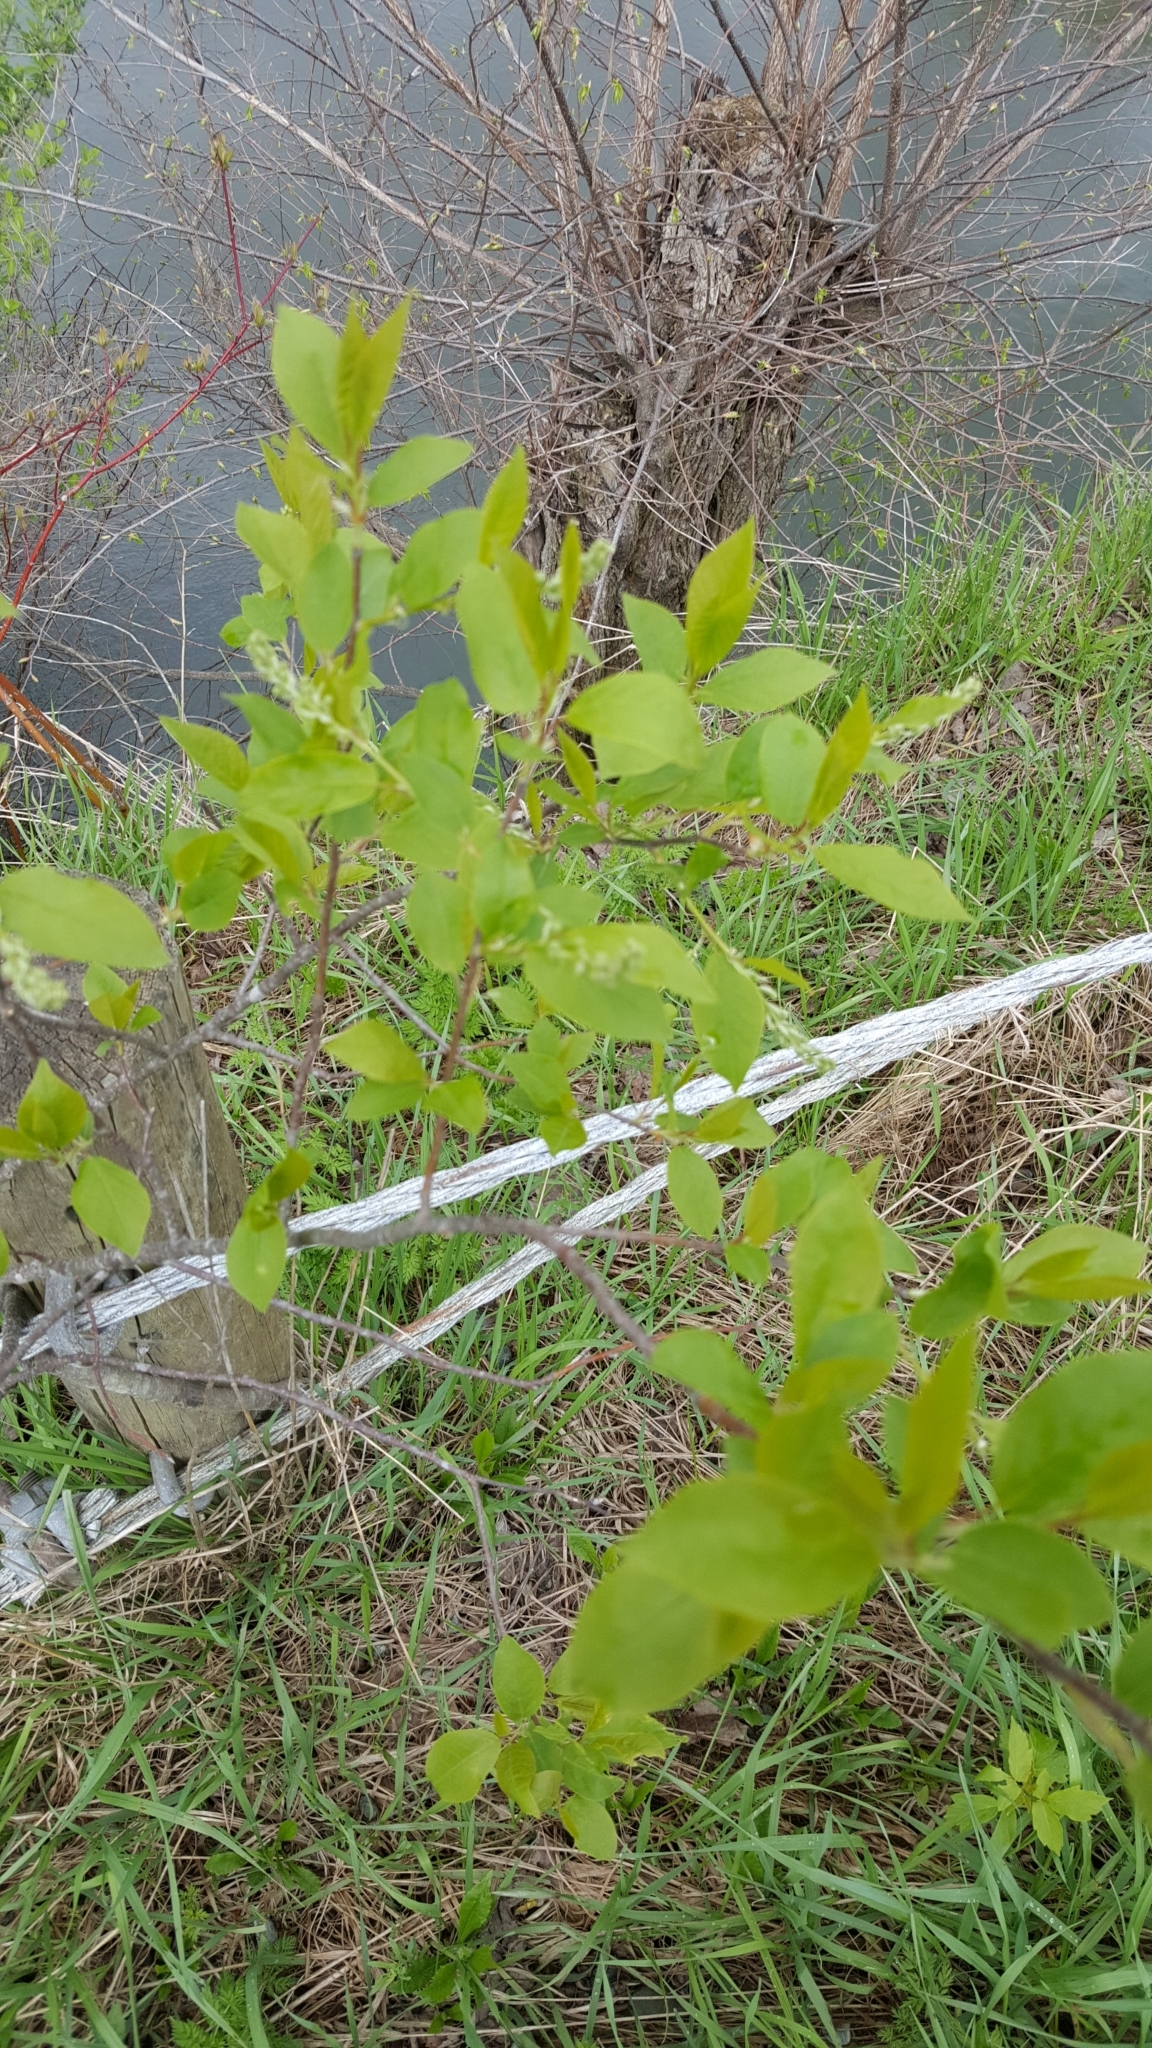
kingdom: Plantae
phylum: Tracheophyta
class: Magnoliopsida
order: Rosales
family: Rosaceae
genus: Prunus
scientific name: Prunus virginiana
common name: Chokecherry
